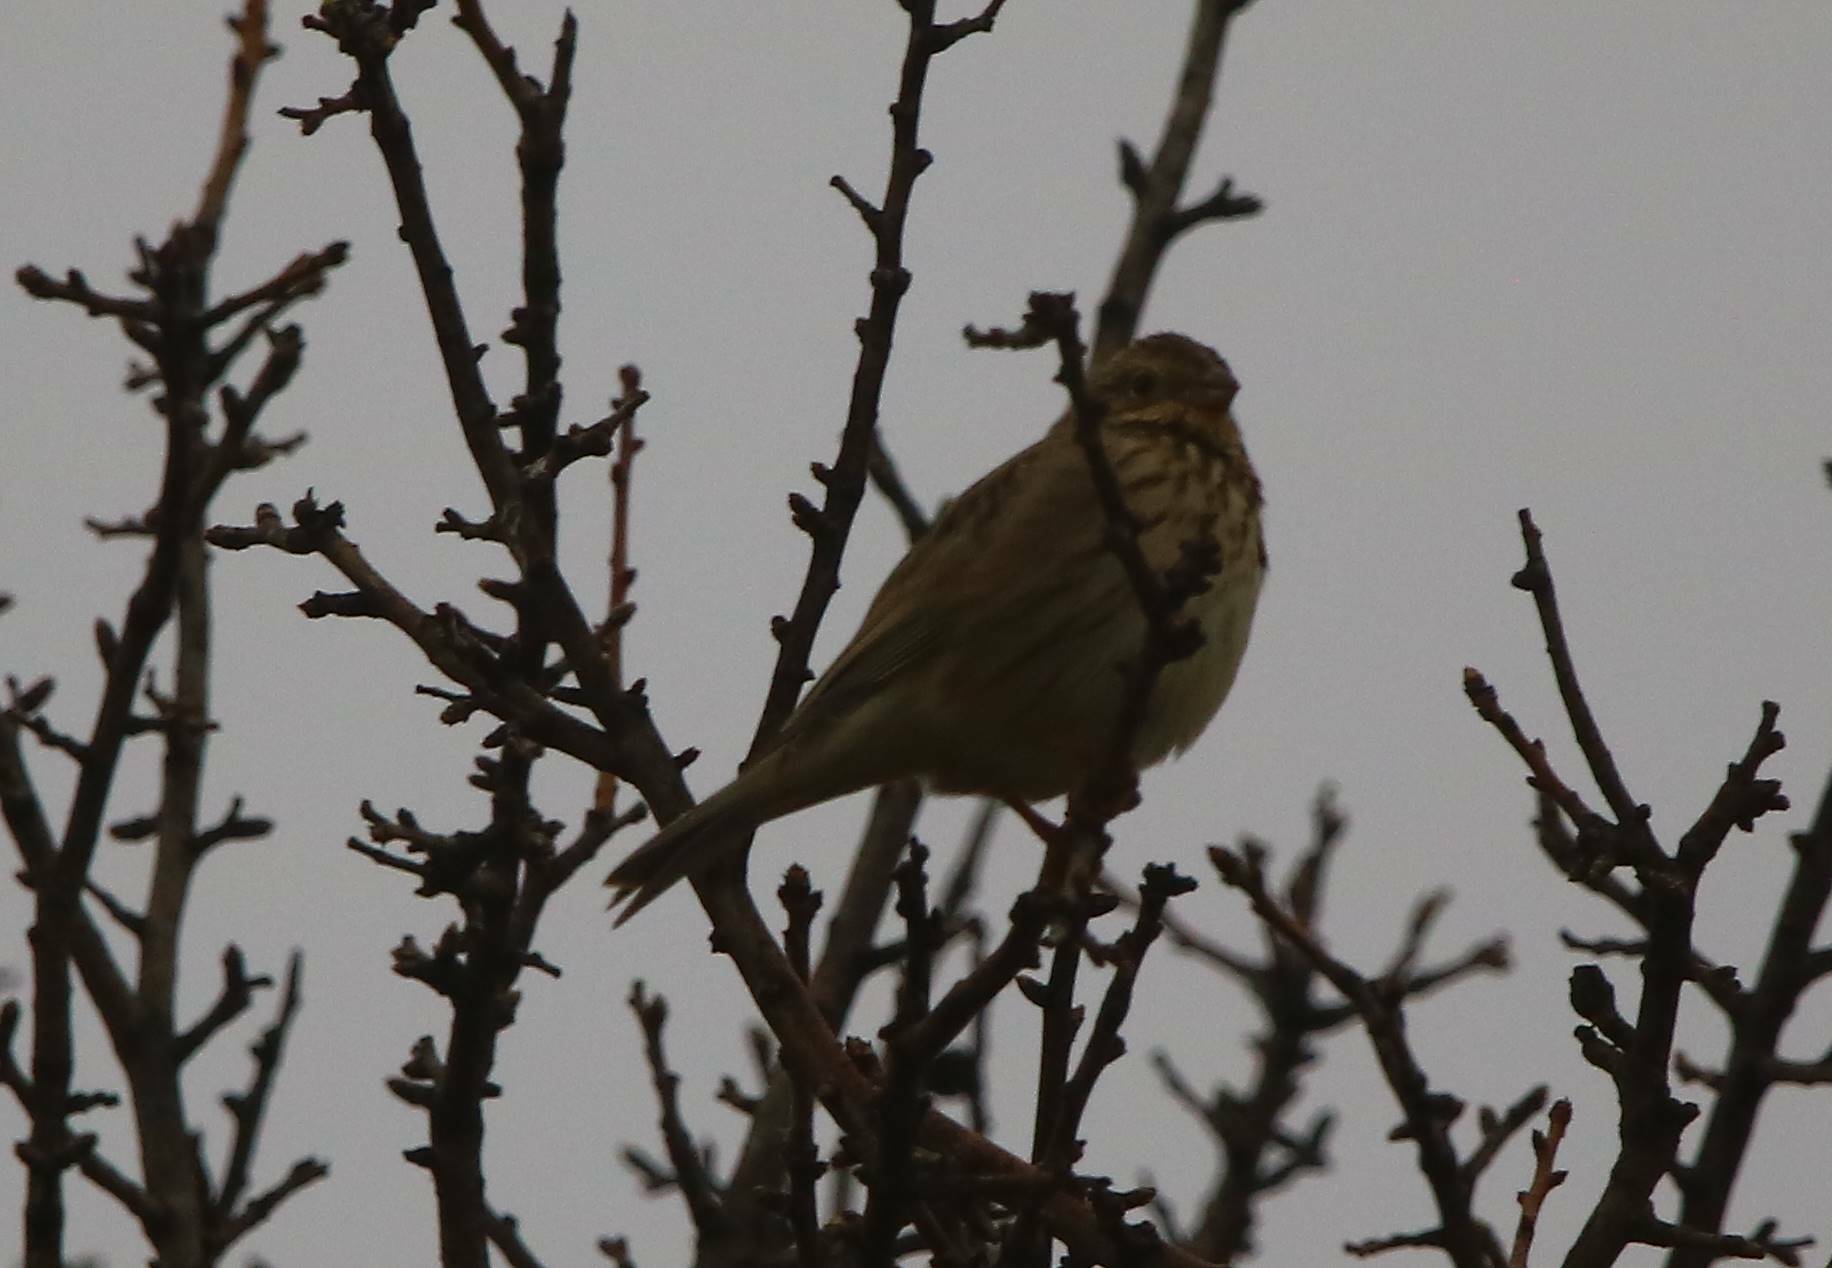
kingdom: Animalia
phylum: Chordata
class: Aves
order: Passeriformes
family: Emberizidae
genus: Emberiza
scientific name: Emberiza calandra
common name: Corn bunting
